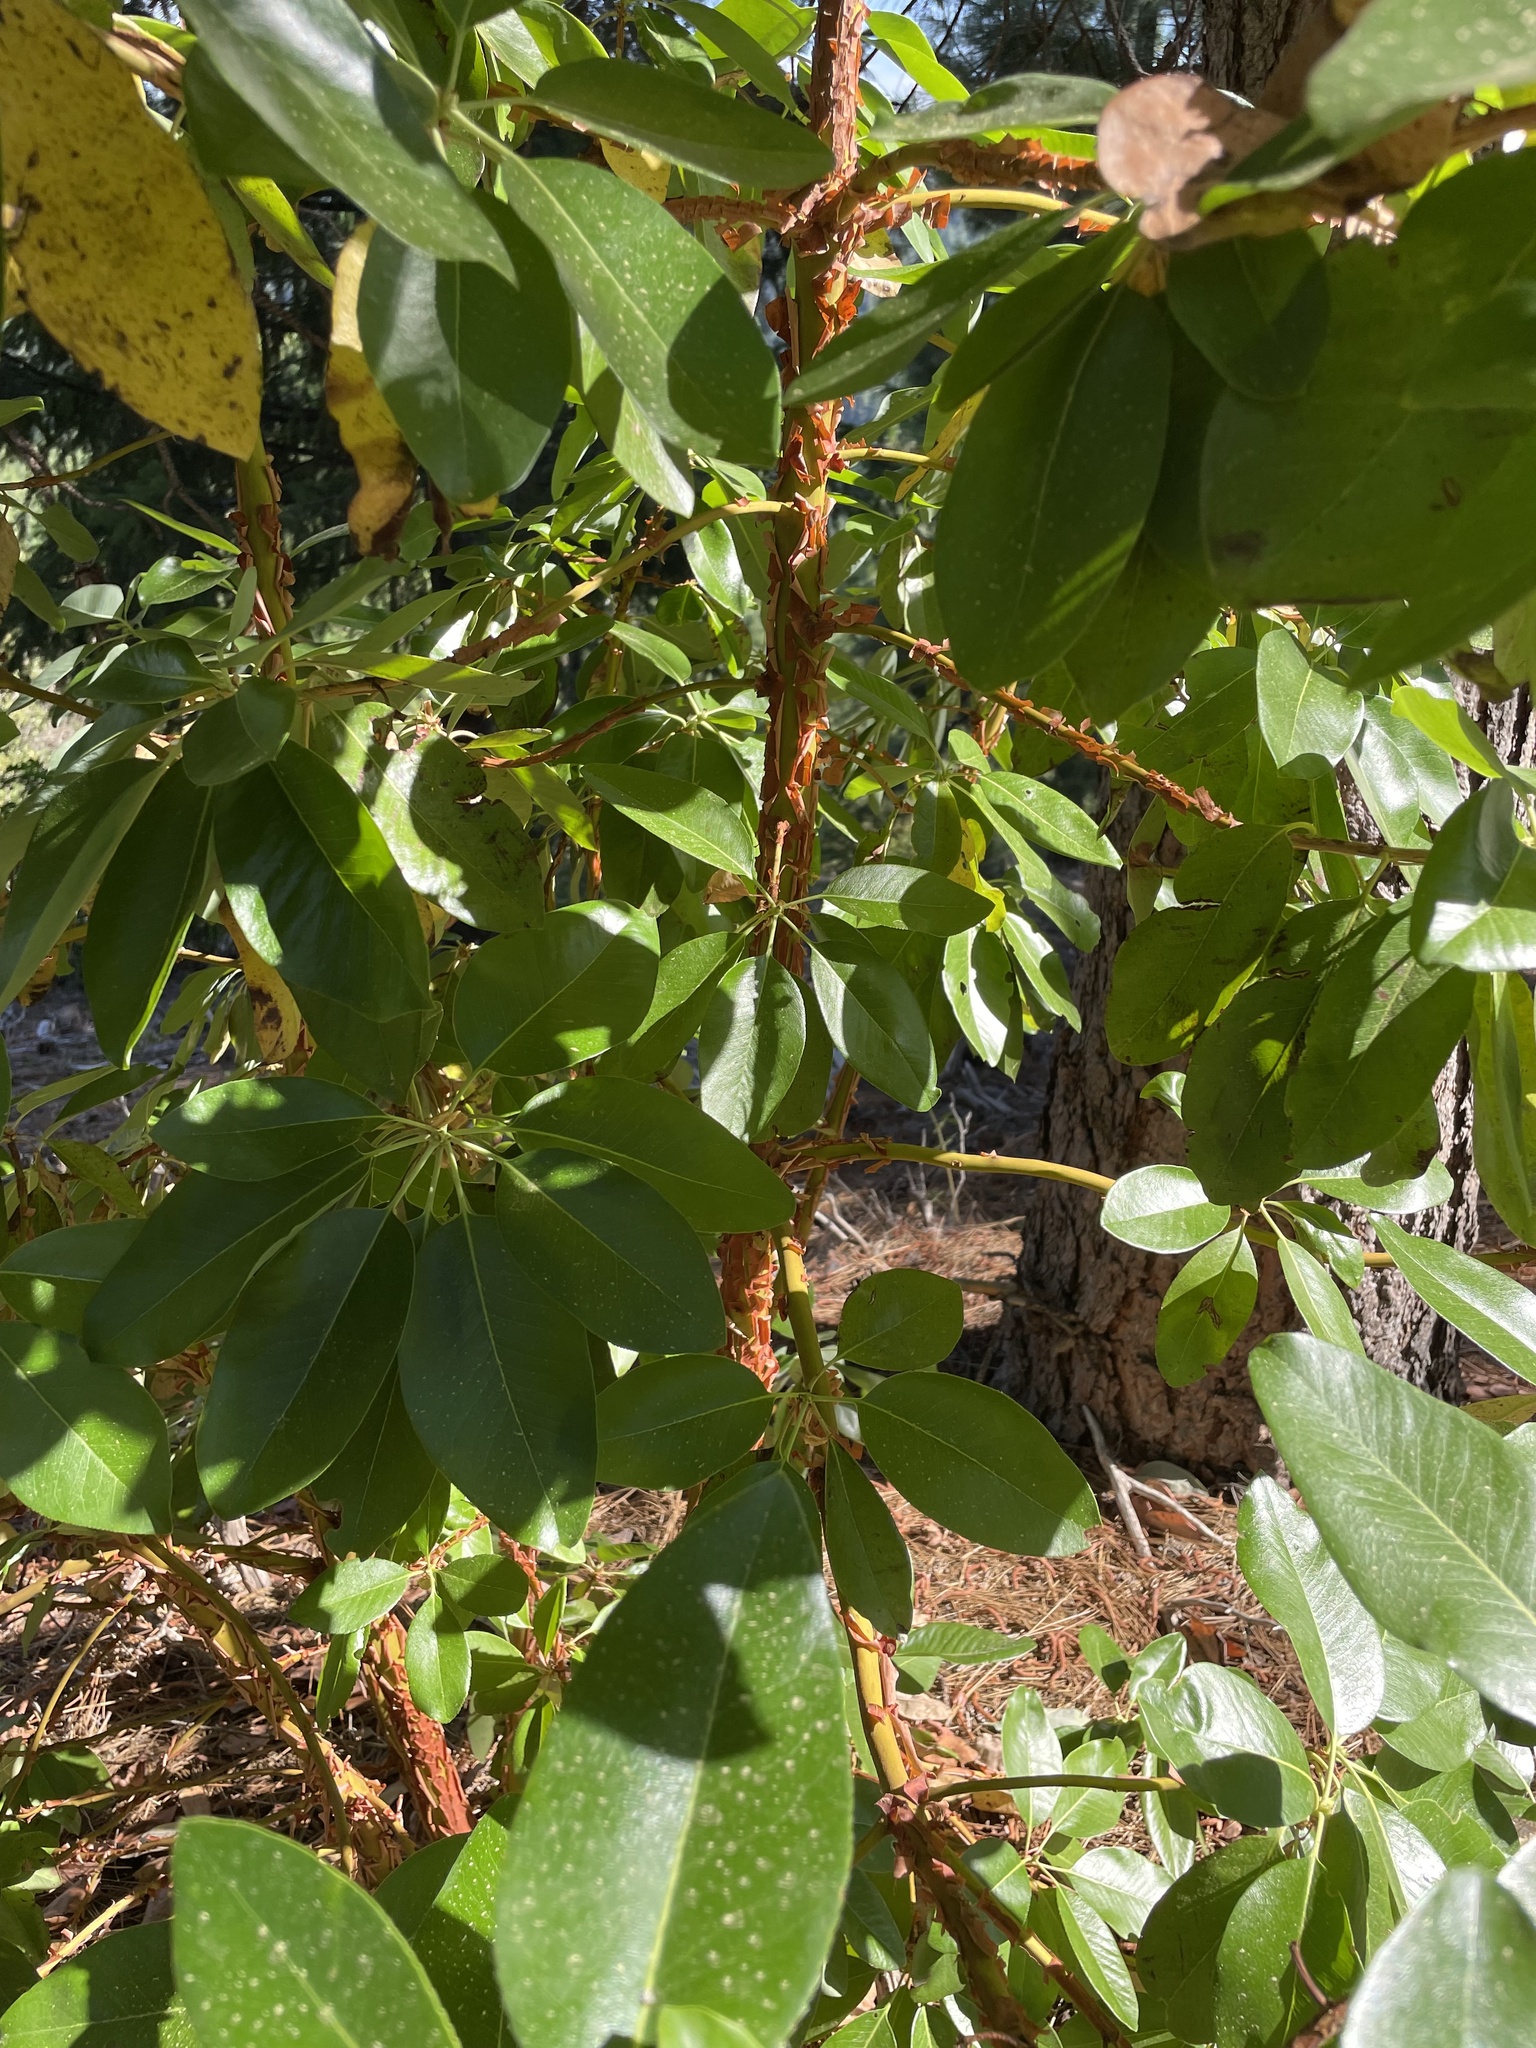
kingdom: Plantae
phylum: Tracheophyta
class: Magnoliopsida
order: Ericales
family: Ericaceae
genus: Arbutus
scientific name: Arbutus menziesii
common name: Pacific madrone
